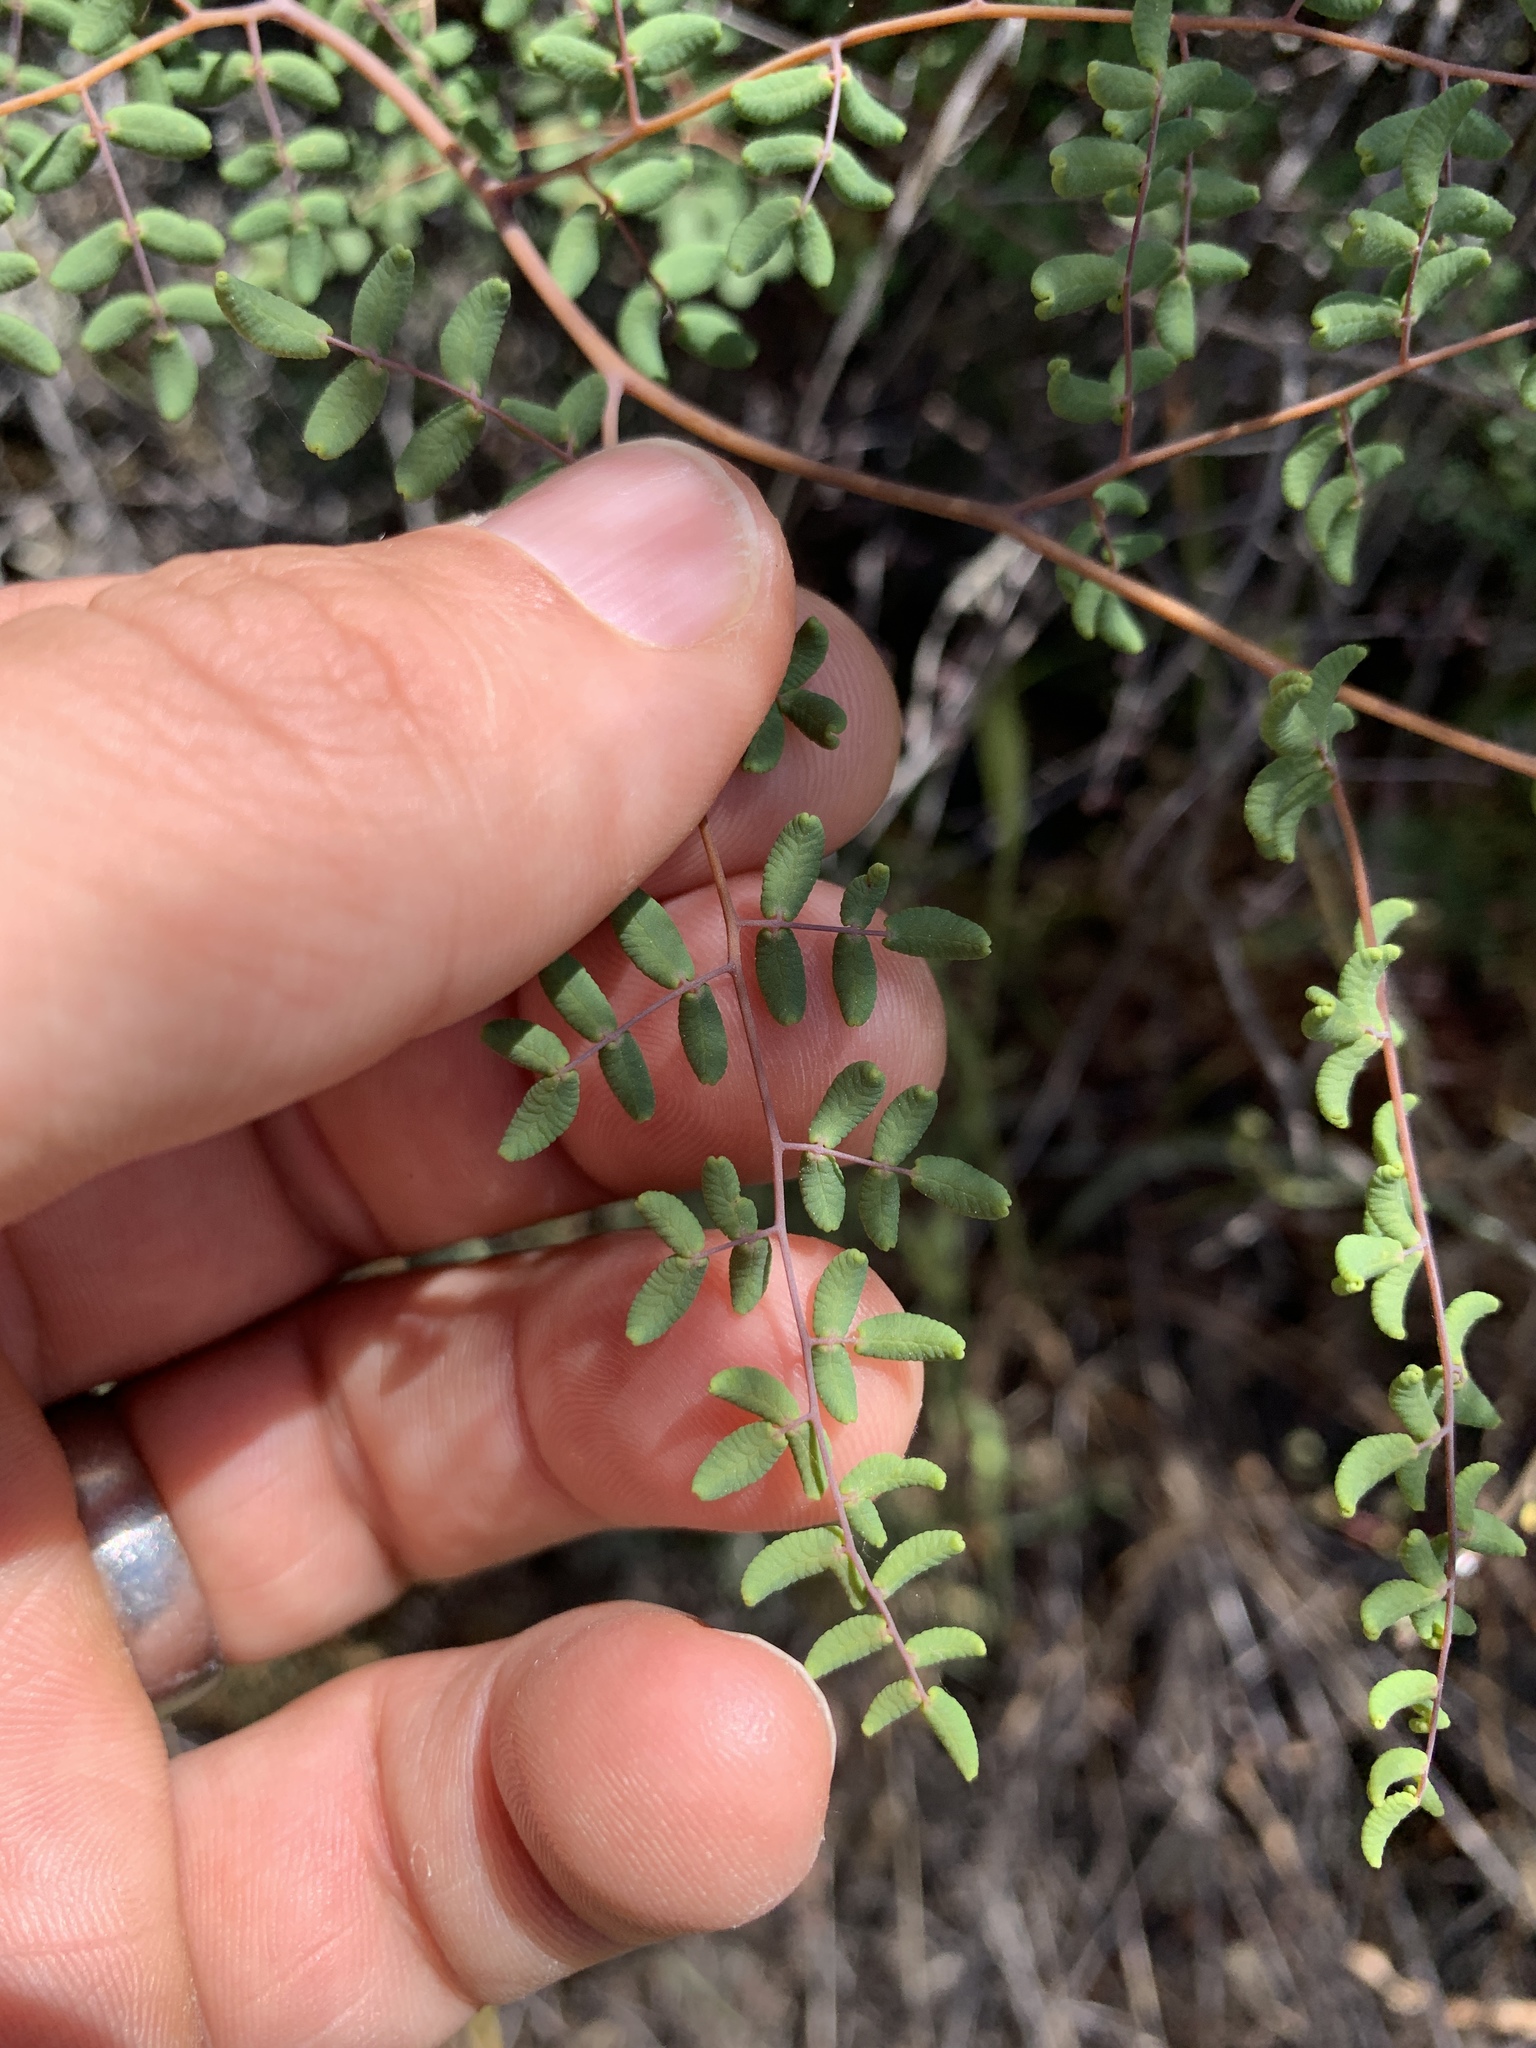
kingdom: Plantae
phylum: Tracheophyta
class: Polypodiopsida
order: Polypodiales
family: Pteridaceae
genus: Pellaea
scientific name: Pellaea andromedifolia
